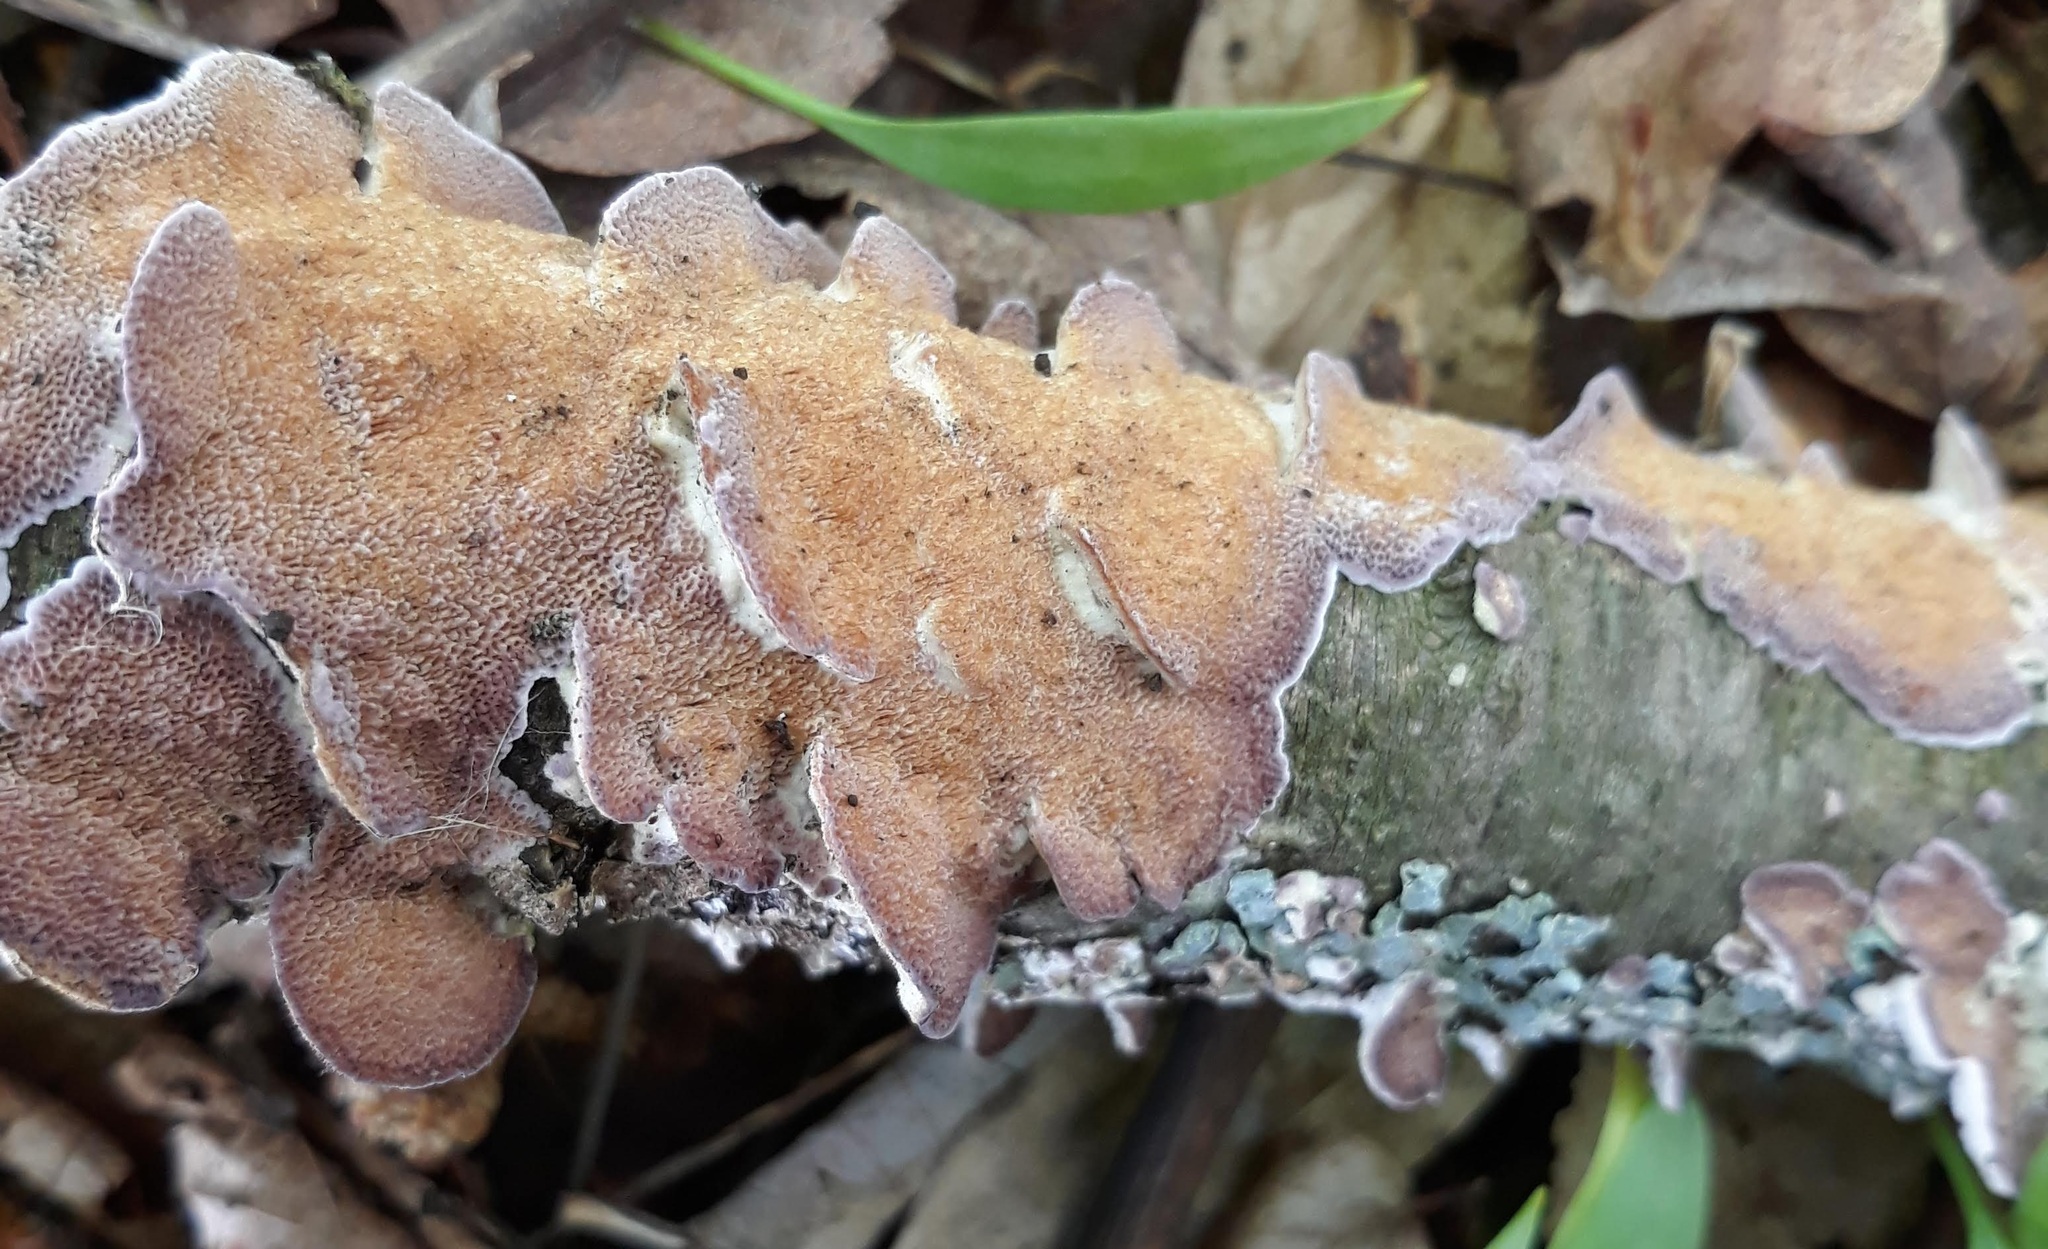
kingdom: Fungi
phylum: Basidiomycota
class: Agaricomycetes
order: Hymenochaetales
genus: Trichaptum
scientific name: Trichaptum biforme
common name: Violet-toothed polypore
